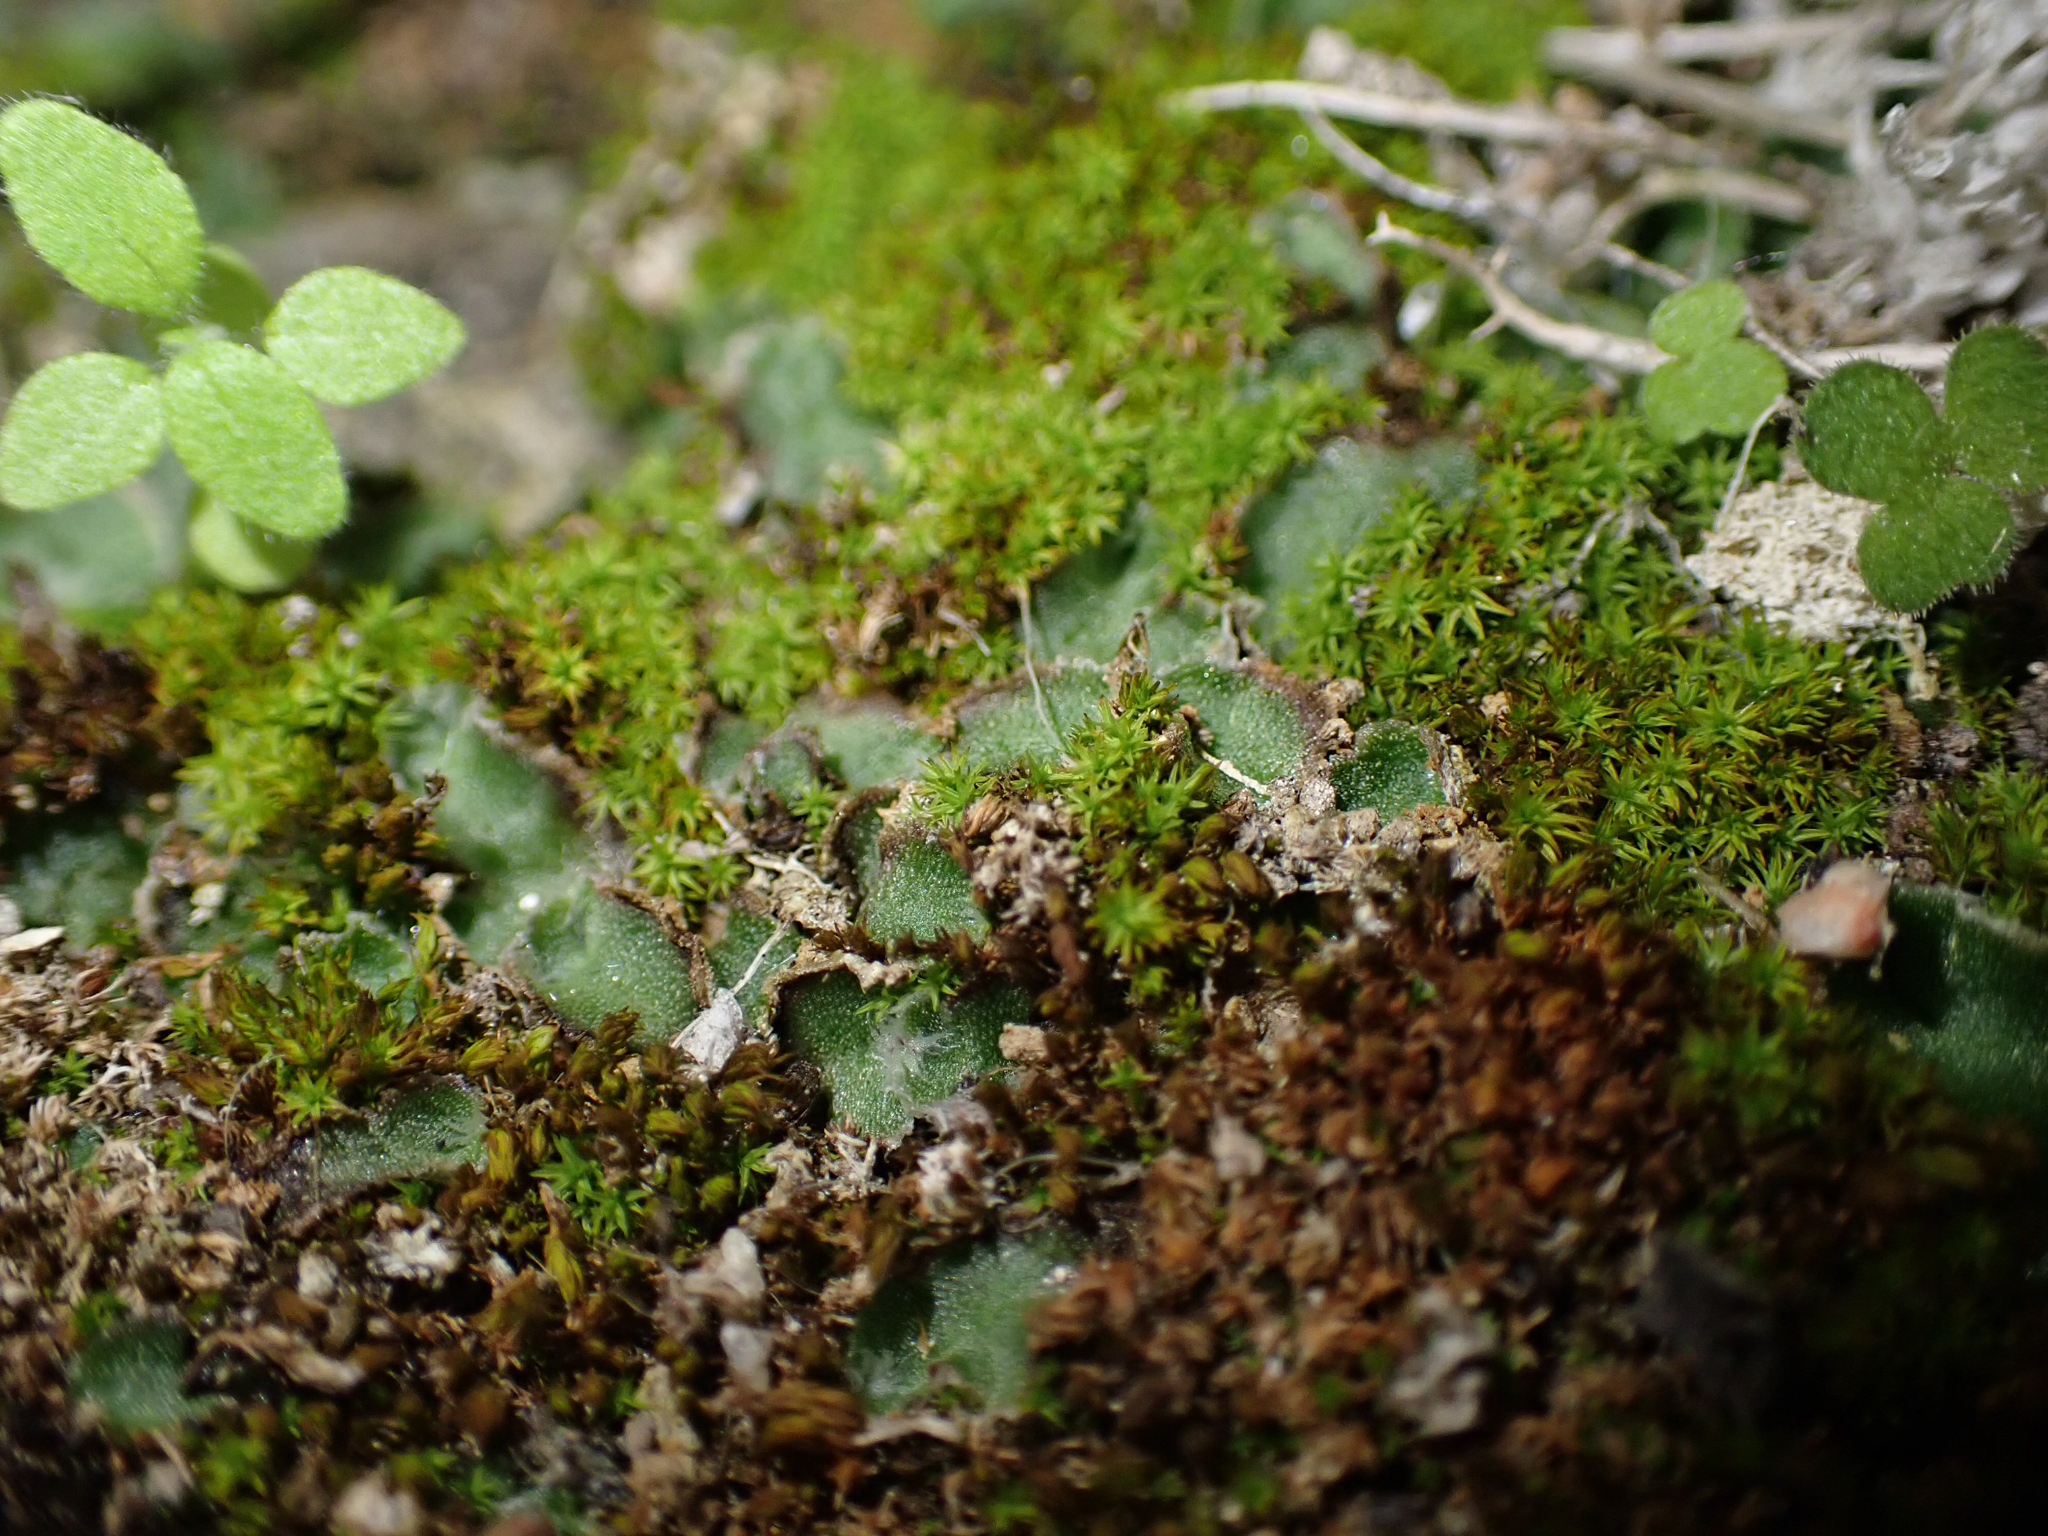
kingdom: Plantae
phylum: Marchantiophyta
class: Marchantiopsida
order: Marchantiales
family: Cleveaceae
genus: Clevea
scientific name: Clevea hyalina
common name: Hyaline liverwort
